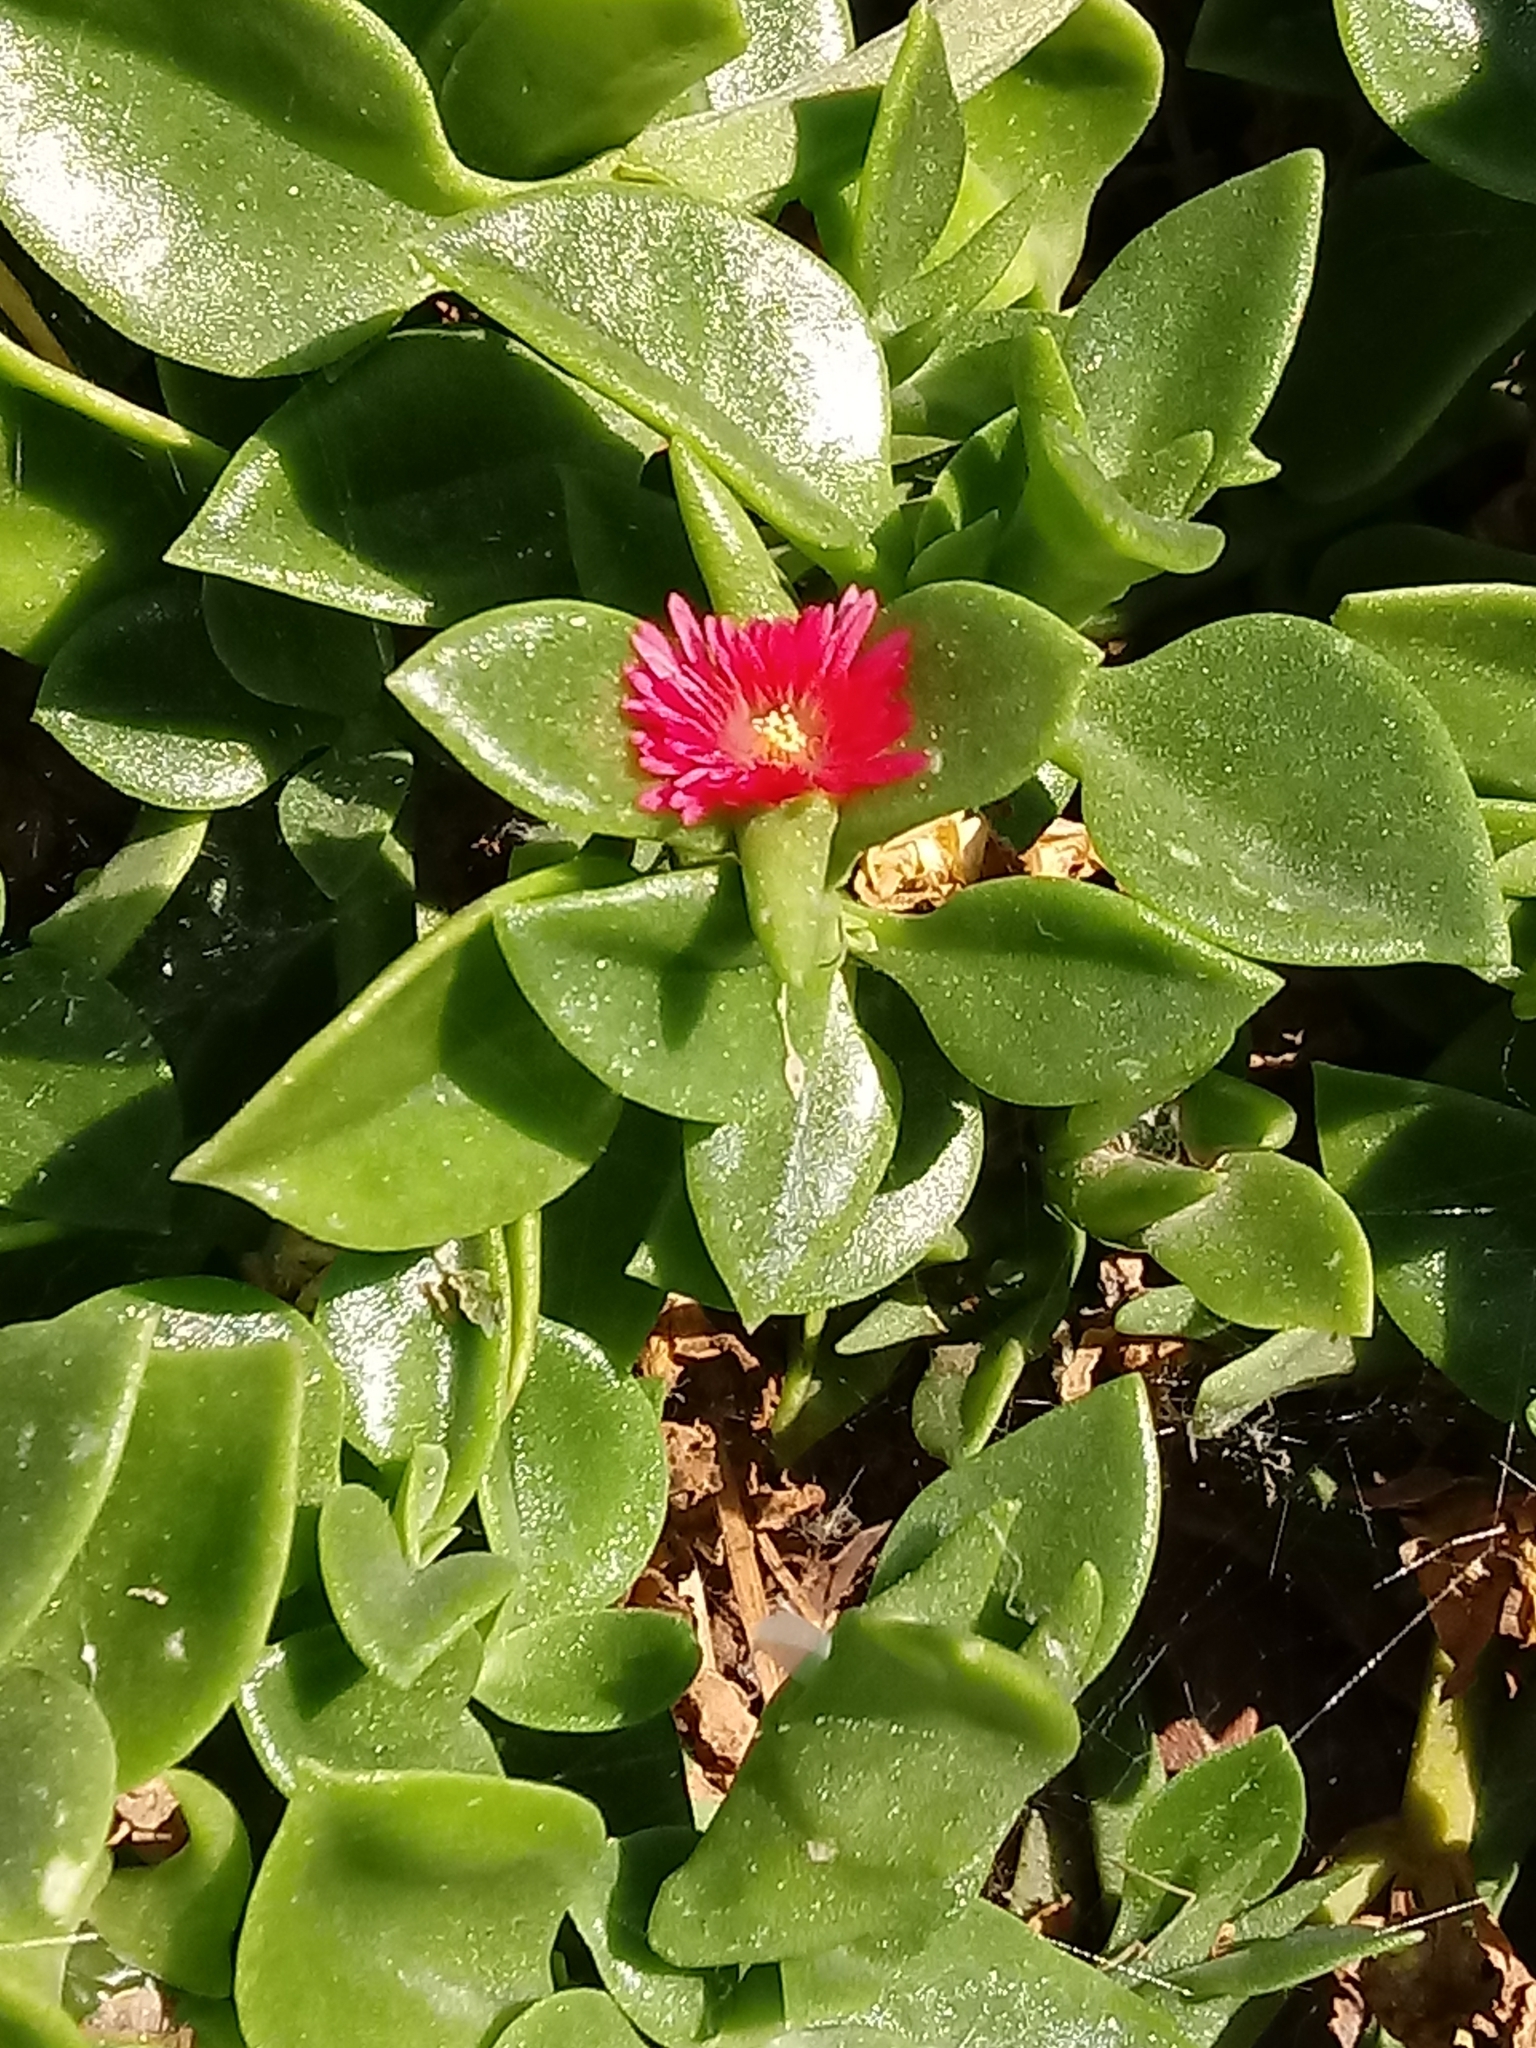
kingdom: Plantae
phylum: Tracheophyta
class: Magnoliopsida
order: Caryophyllales
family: Aizoaceae
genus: Mesembryanthemum
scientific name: Mesembryanthemum cordifolium
